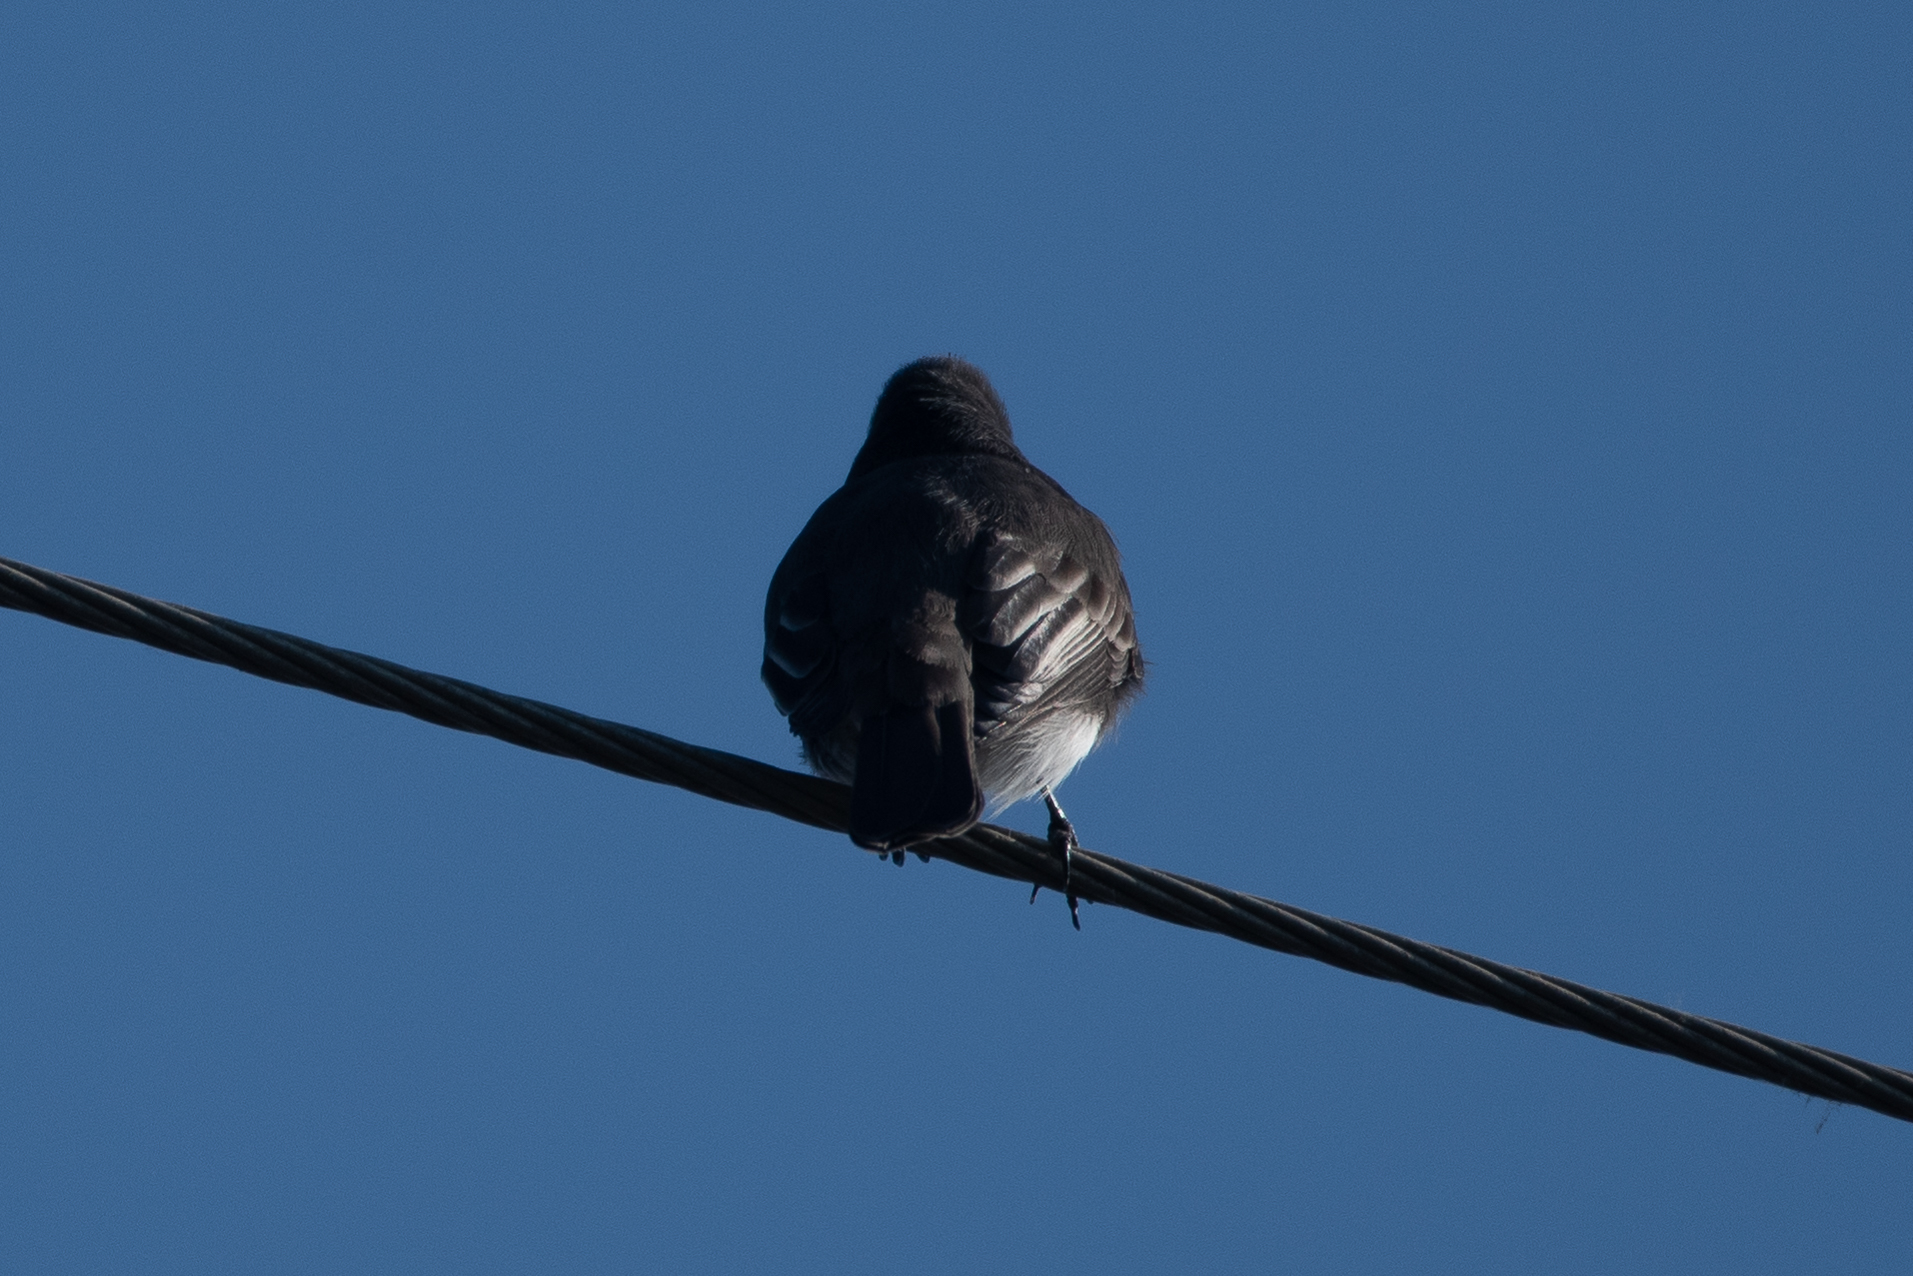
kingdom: Animalia
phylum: Chordata
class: Aves
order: Passeriformes
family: Tyrannidae
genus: Sayornis
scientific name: Sayornis nigricans
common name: Black phoebe
